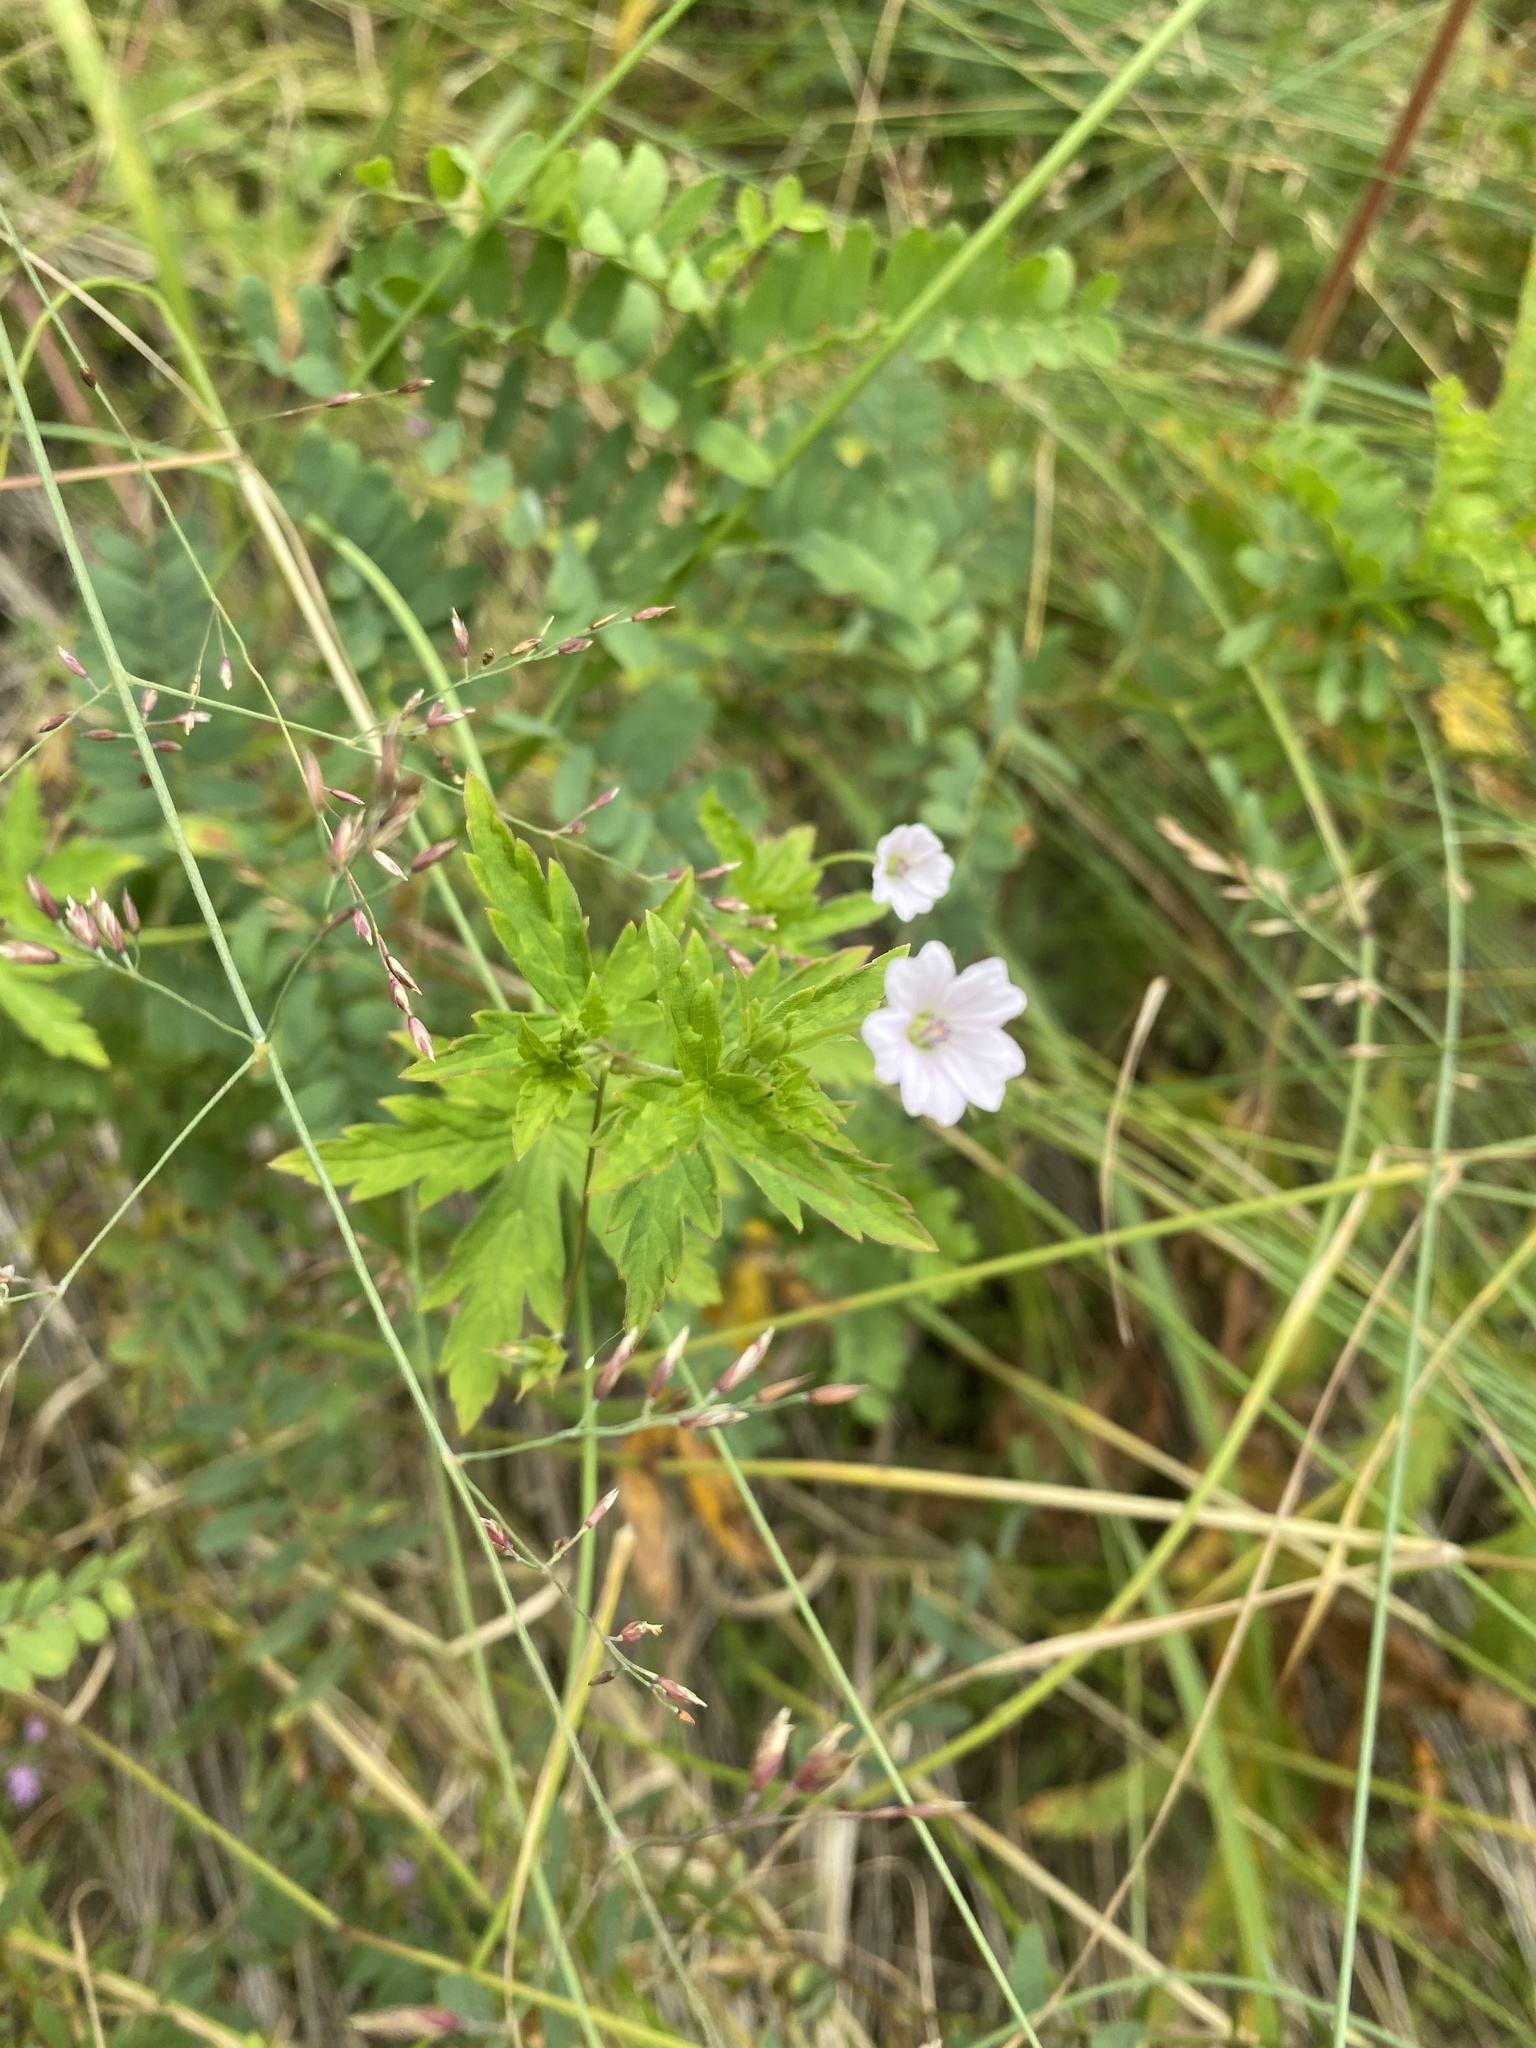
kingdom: Plantae
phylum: Tracheophyta
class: Magnoliopsida
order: Geraniales
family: Geraniaceae
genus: Geranium
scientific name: Geranium sibiricum
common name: Siberian crane's-bill
